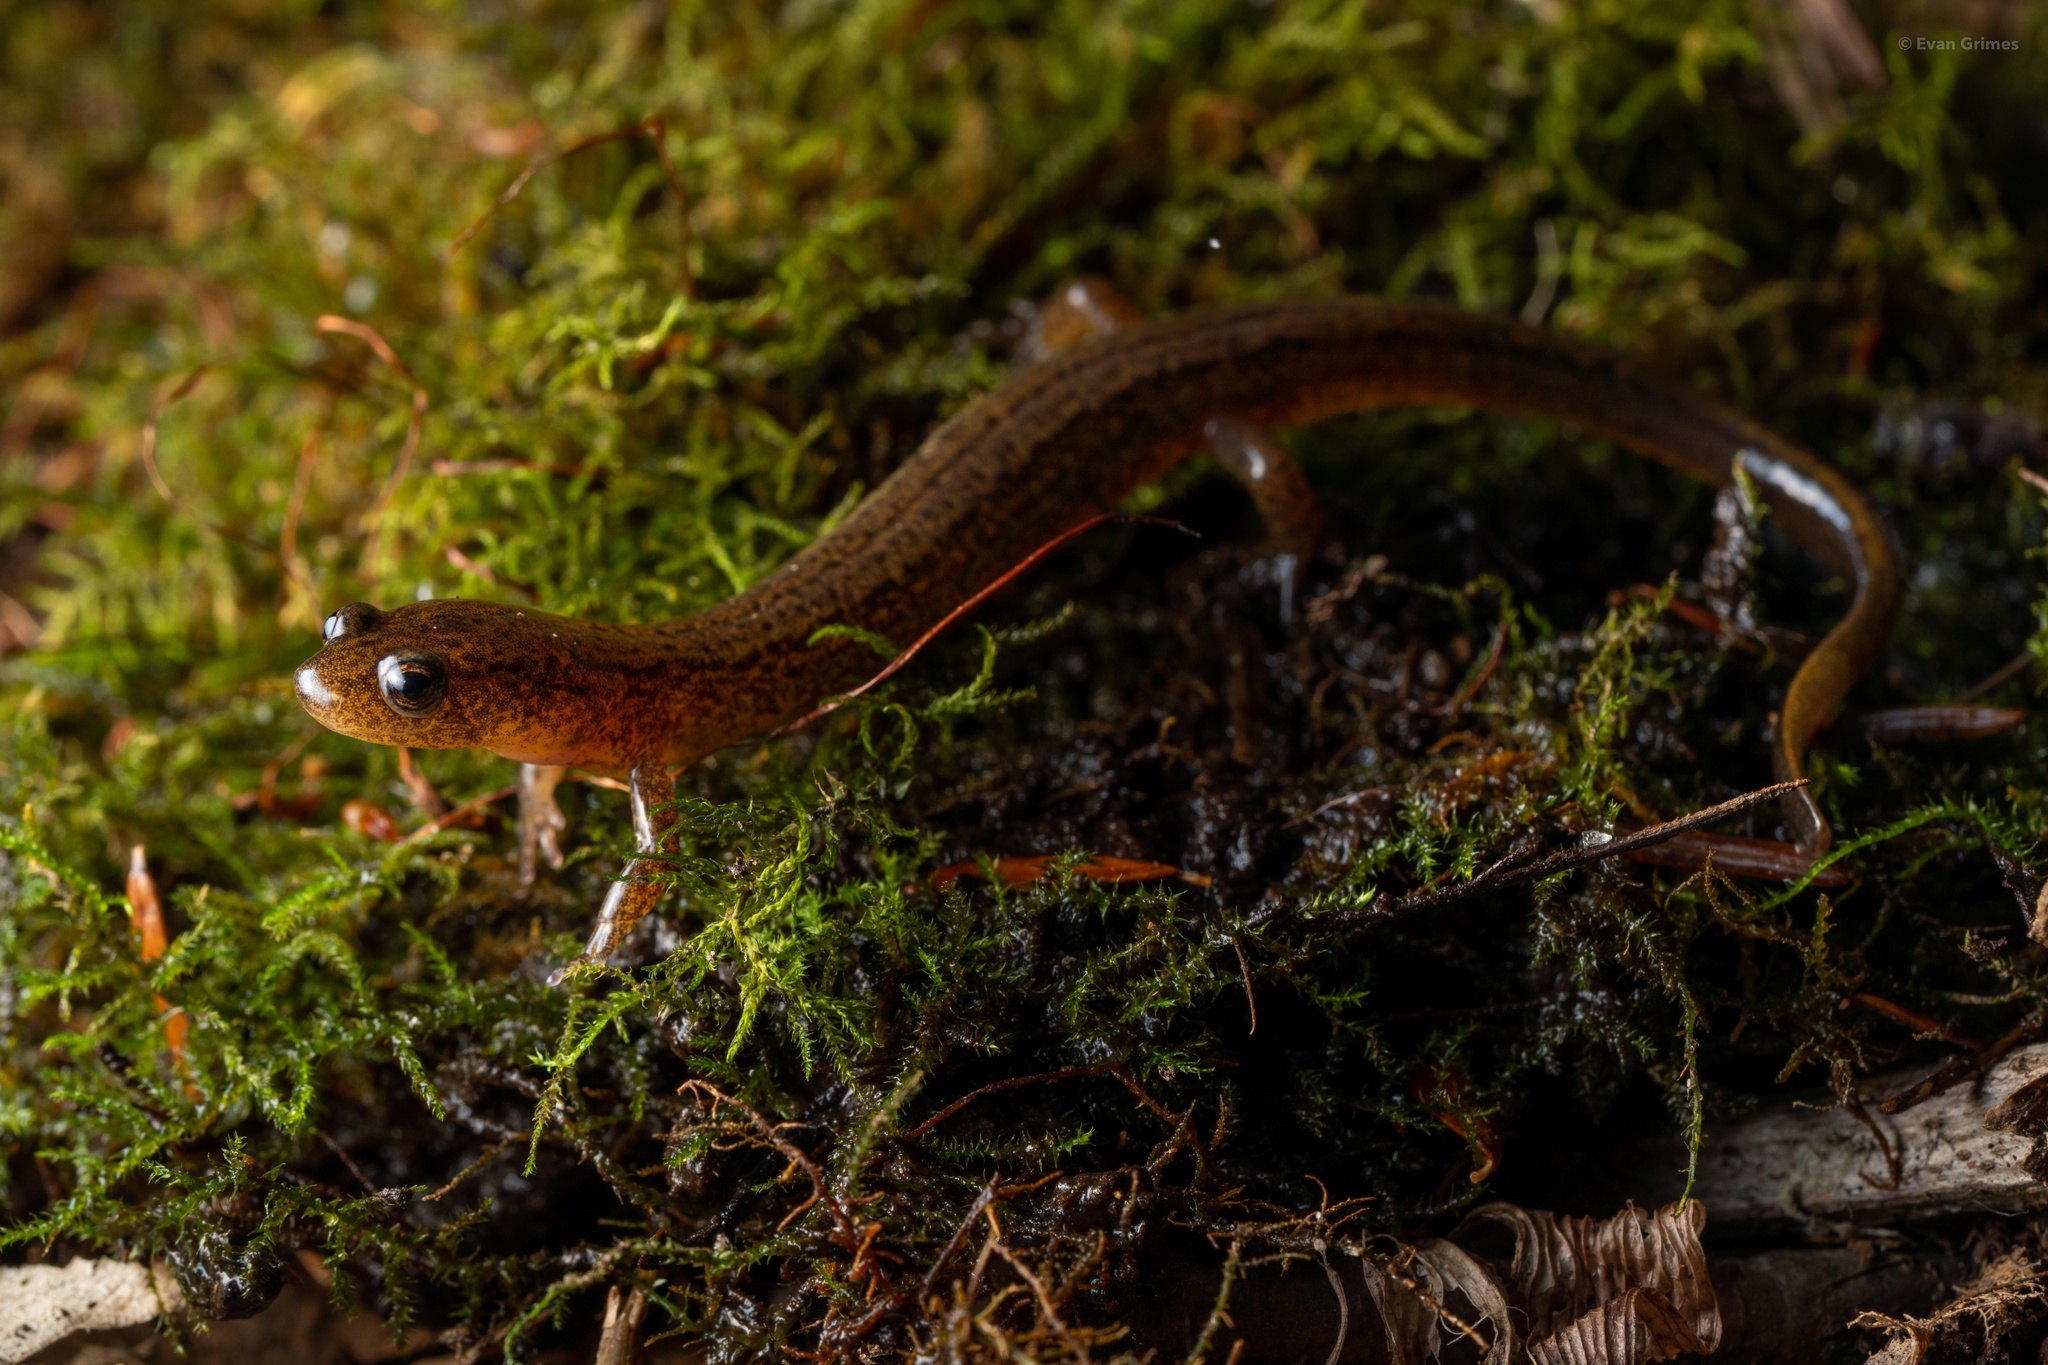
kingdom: Animalia
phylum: Chordata
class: Amphibia
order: Caudata
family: Plethodontidae
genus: Eurycea
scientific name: Eurycea bislineata
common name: Northern two-lined salamander
